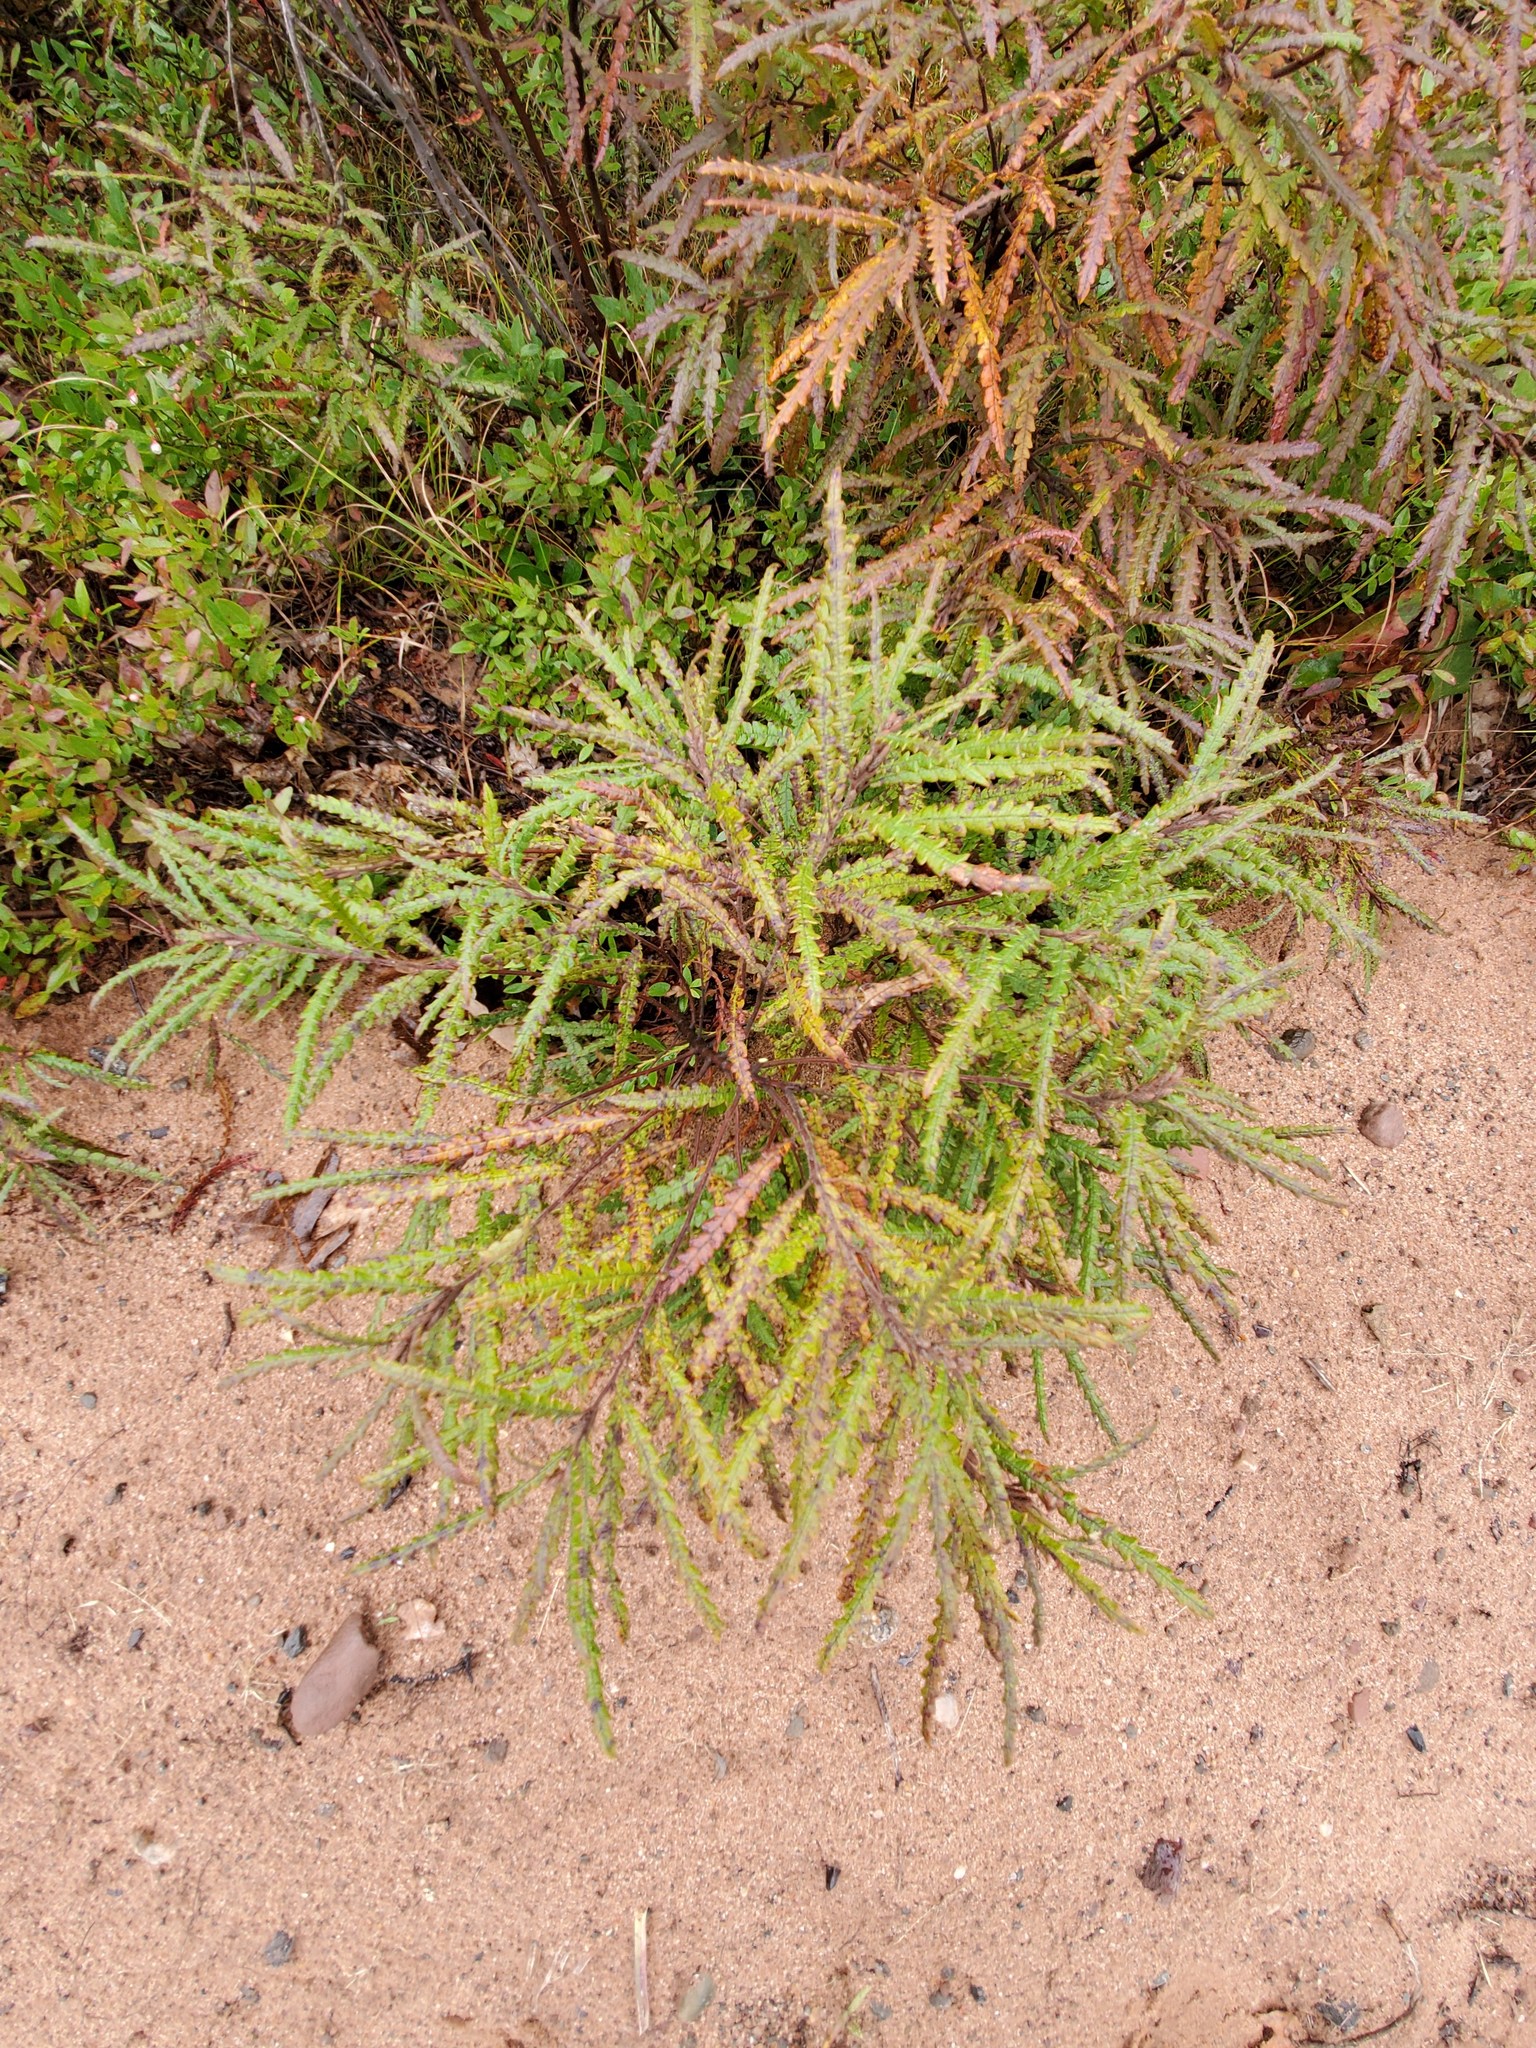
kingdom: Plantae
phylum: Tracheophyta
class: Magnoliopsida
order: Fagales
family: Myricaceae
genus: Comptonia
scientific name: Comptonia peregrina
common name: Sweet-fern
